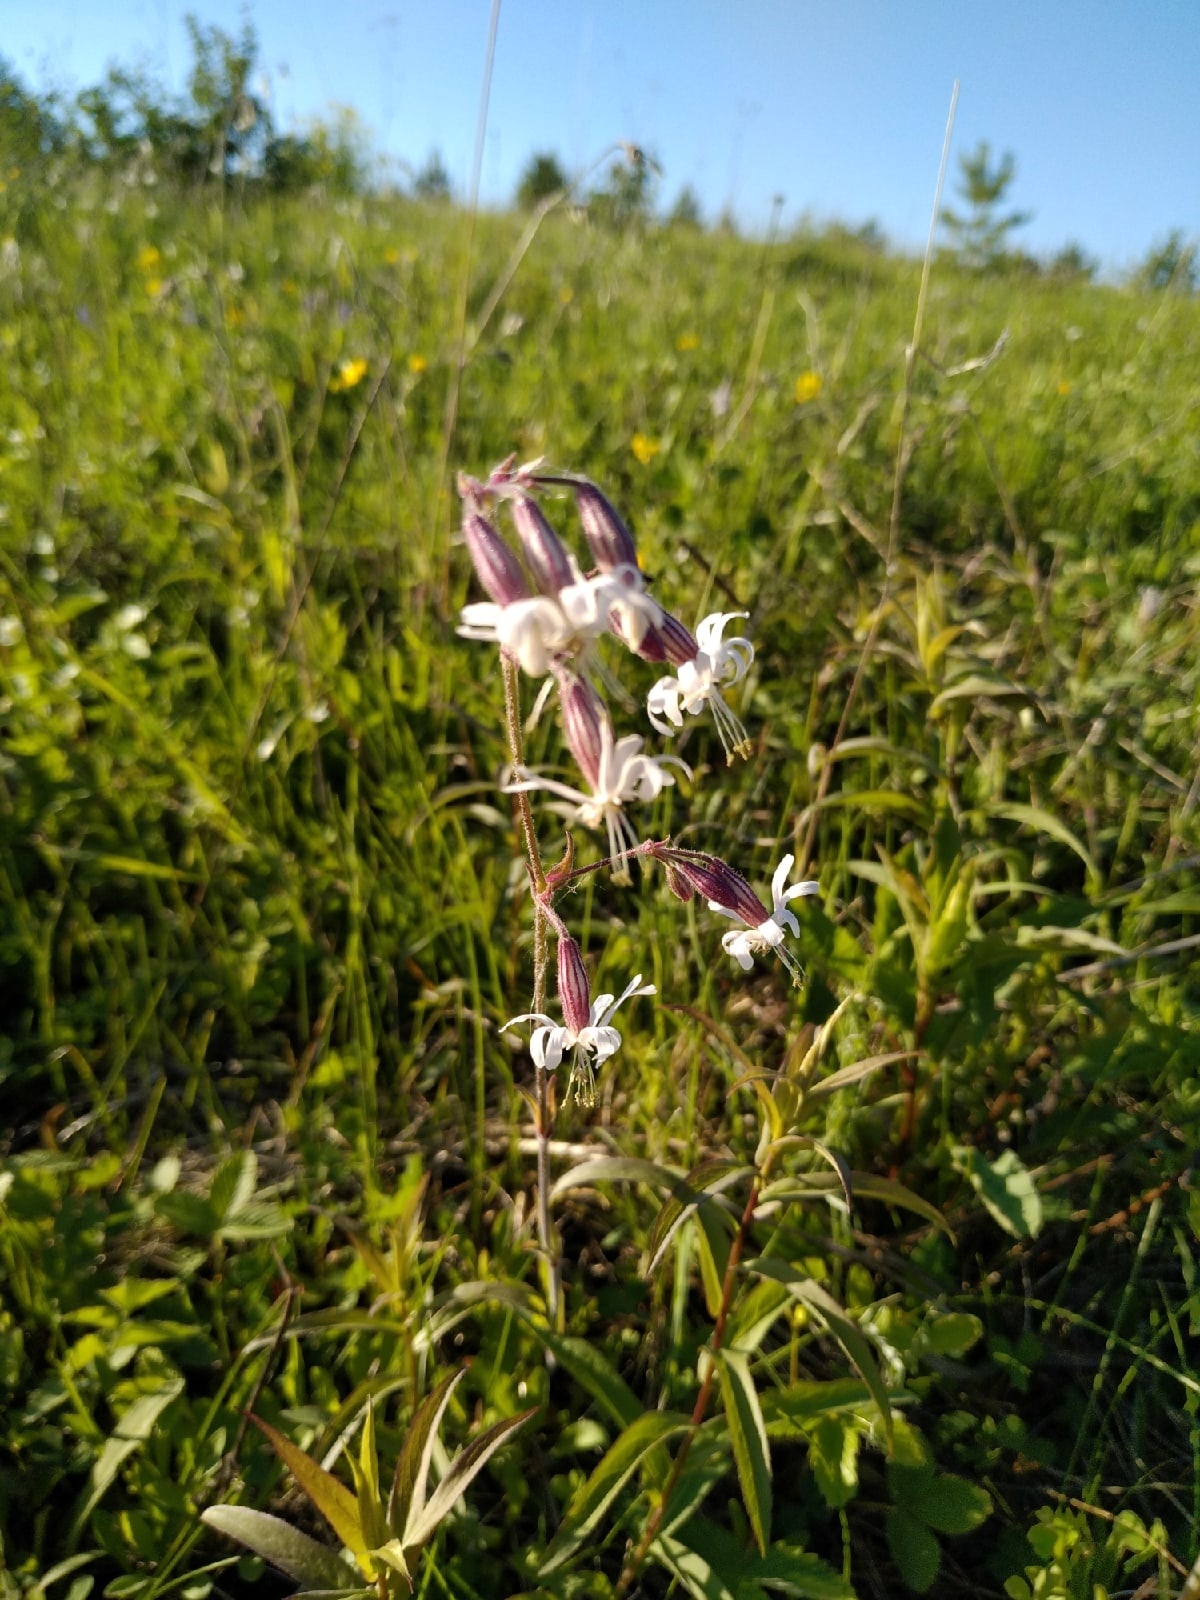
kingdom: Plantae
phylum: Tracheophyta
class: Magnoliopsida
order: Caryophyllales
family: Caryophyllaceae
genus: Silene
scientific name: Silene nutans
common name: Nottingham catchfly
